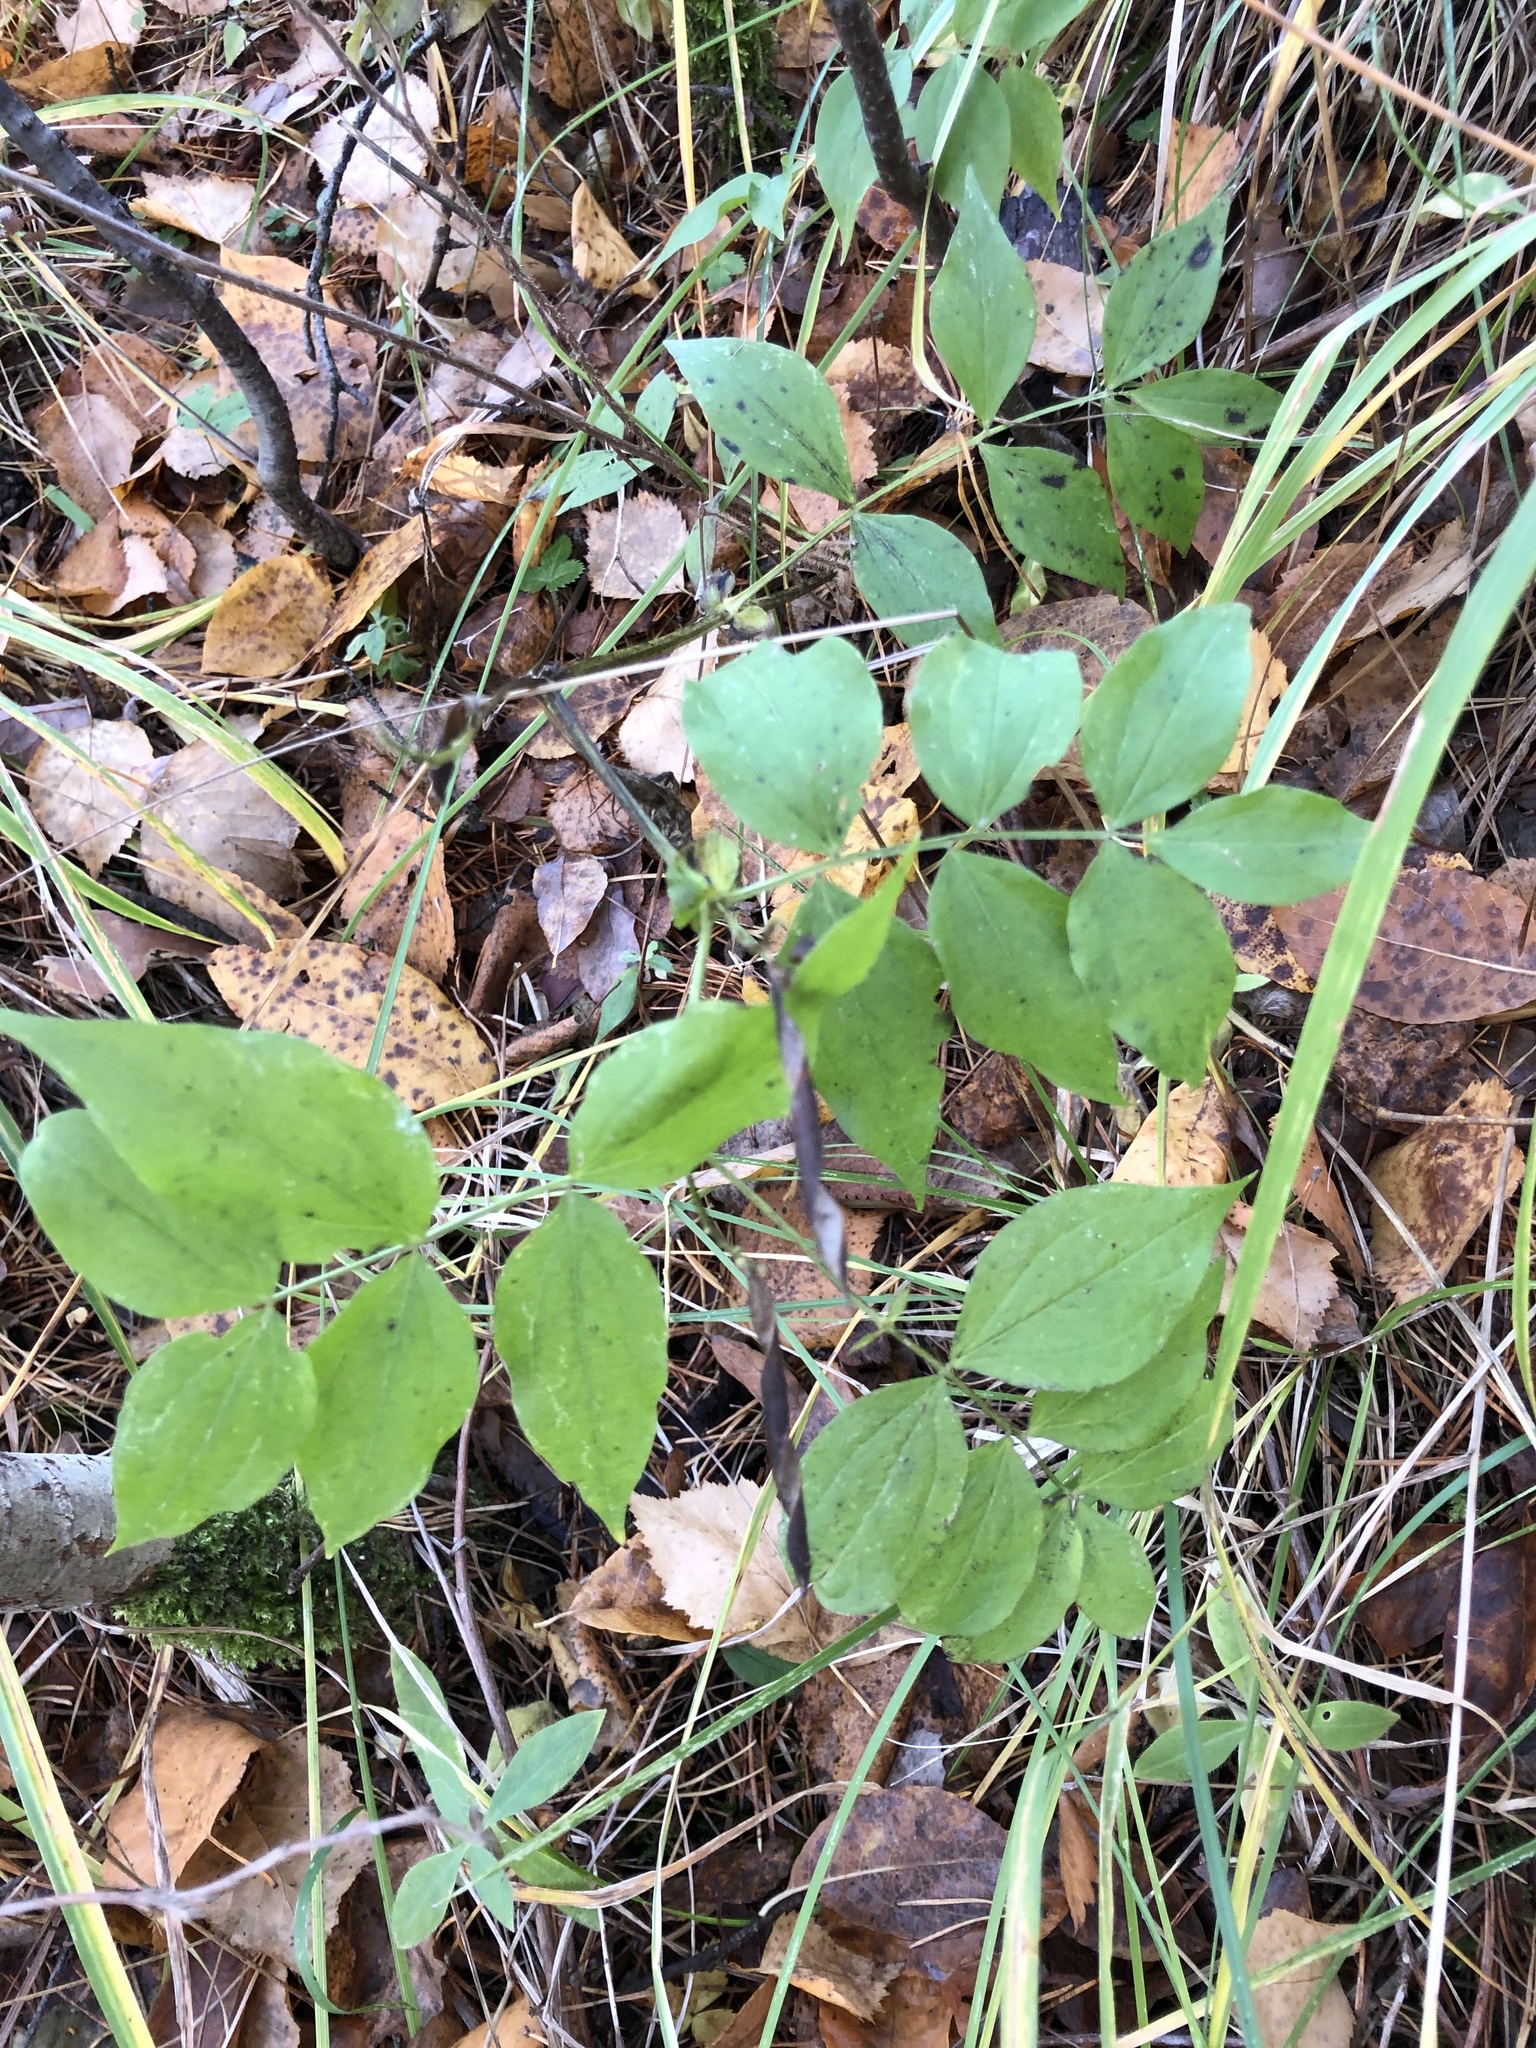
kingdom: Plantae
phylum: Tracheophyta
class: Magnoliopsida
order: Fabales
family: Fabaceae
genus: Lathyrus
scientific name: Lathyrus vernus
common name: Spring pea
